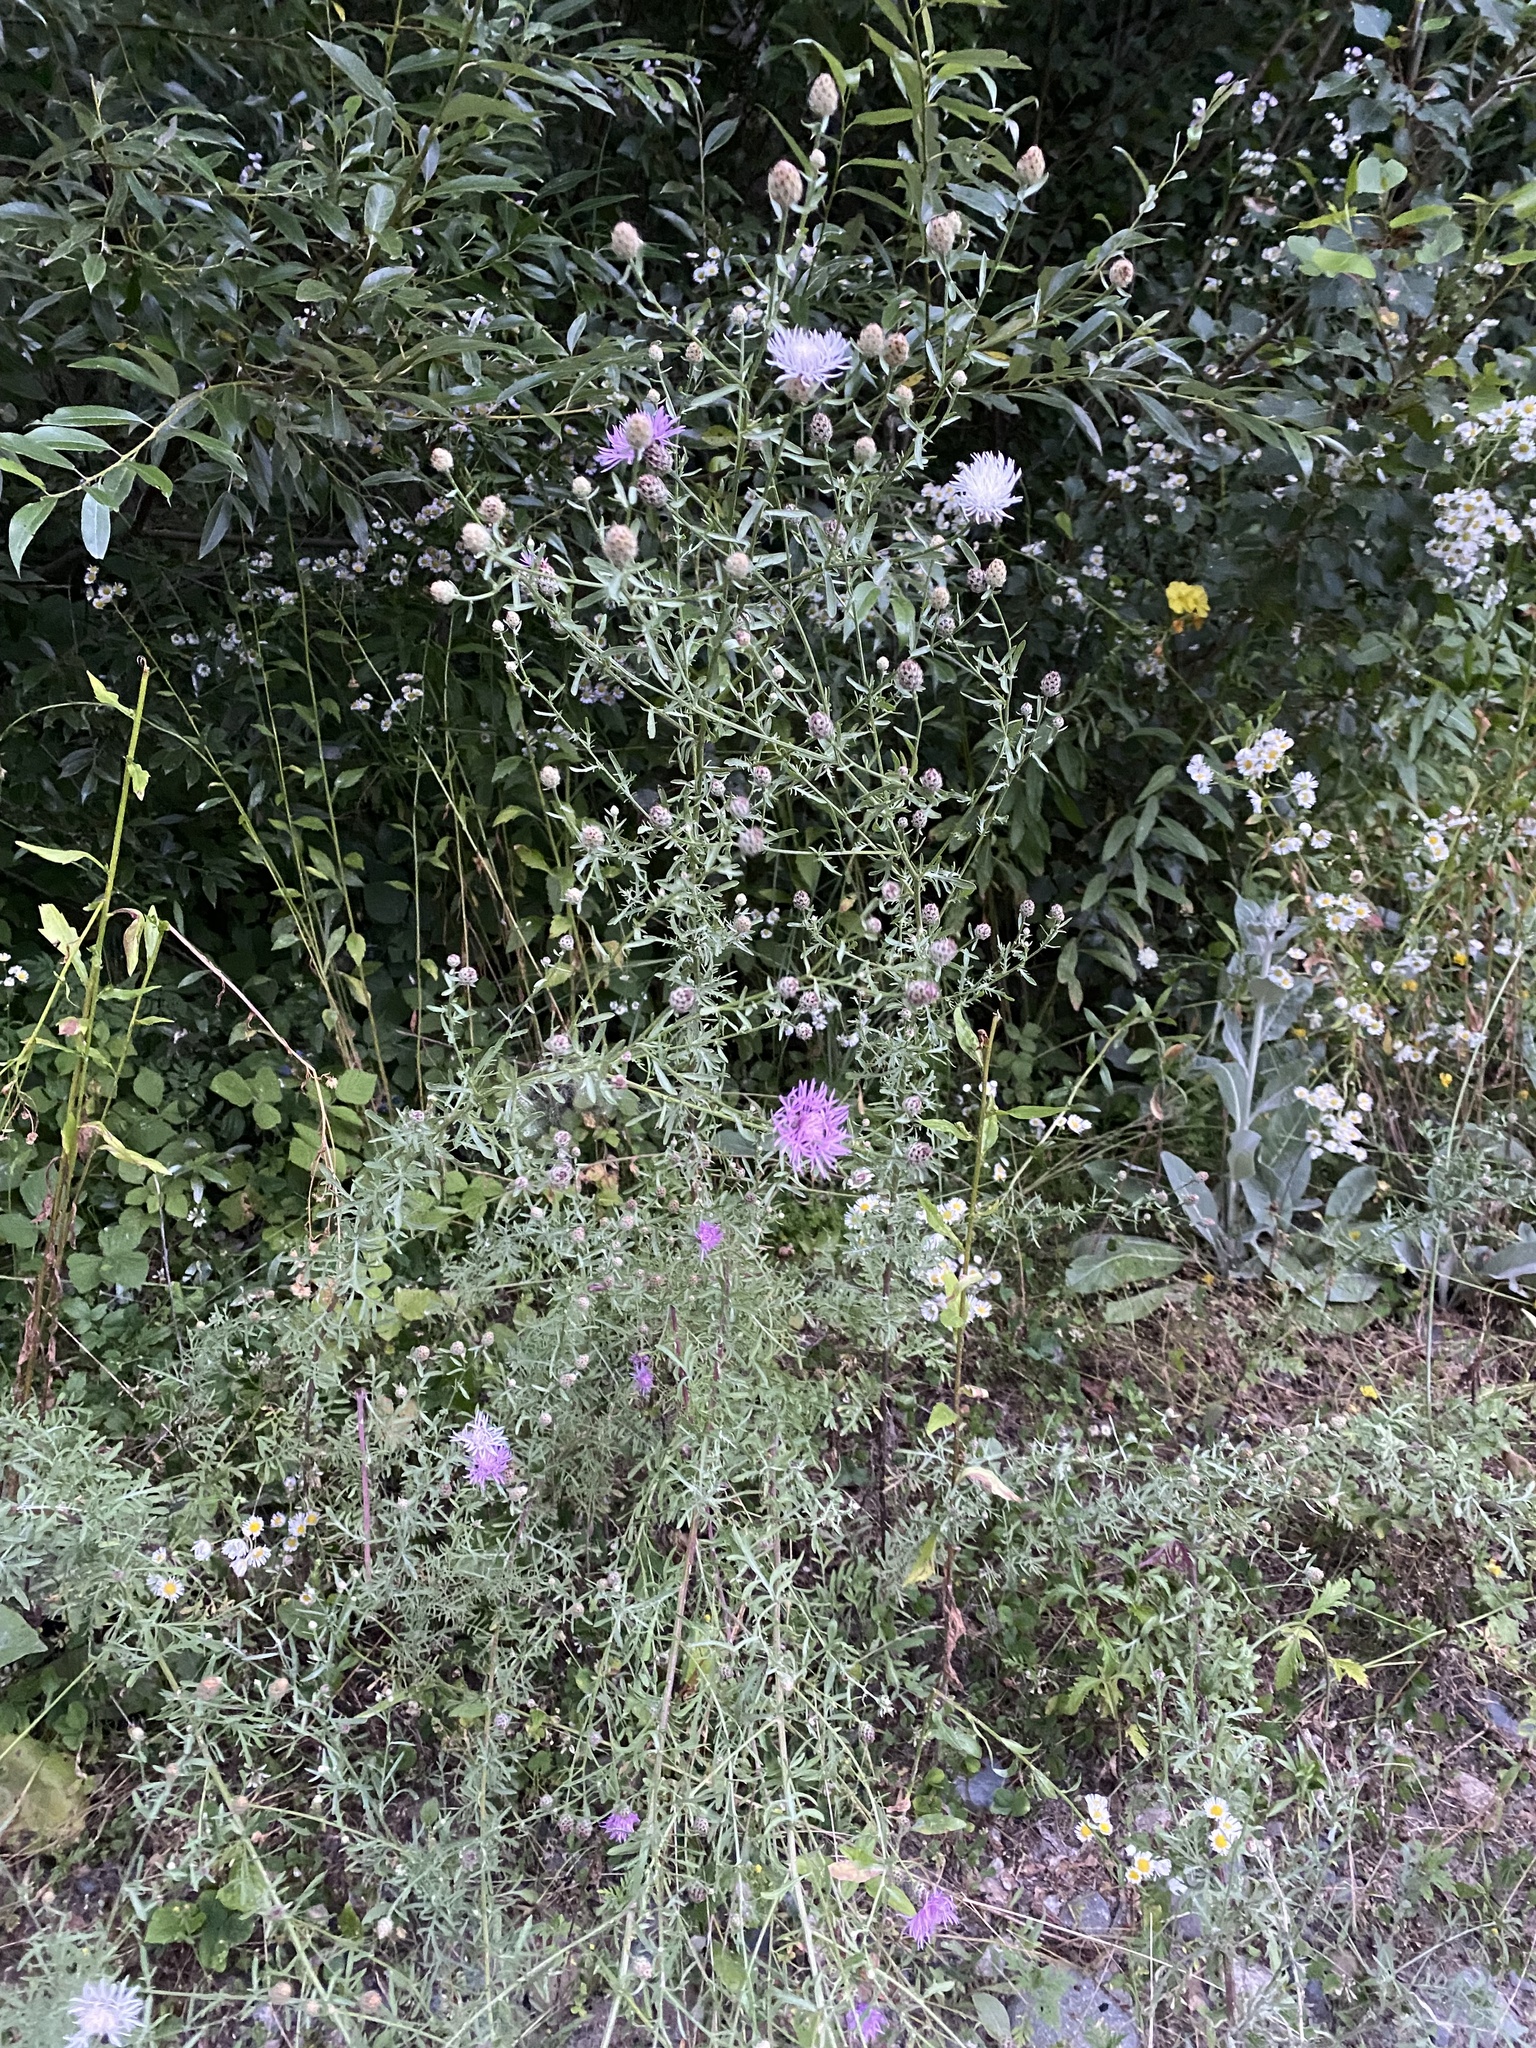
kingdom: Plantae
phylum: Tracheophyta
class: Magnoliopsida
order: Asterales
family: Asteraceae
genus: Centaurea
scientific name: Centaurea stoebe
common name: Spotted knapweed
